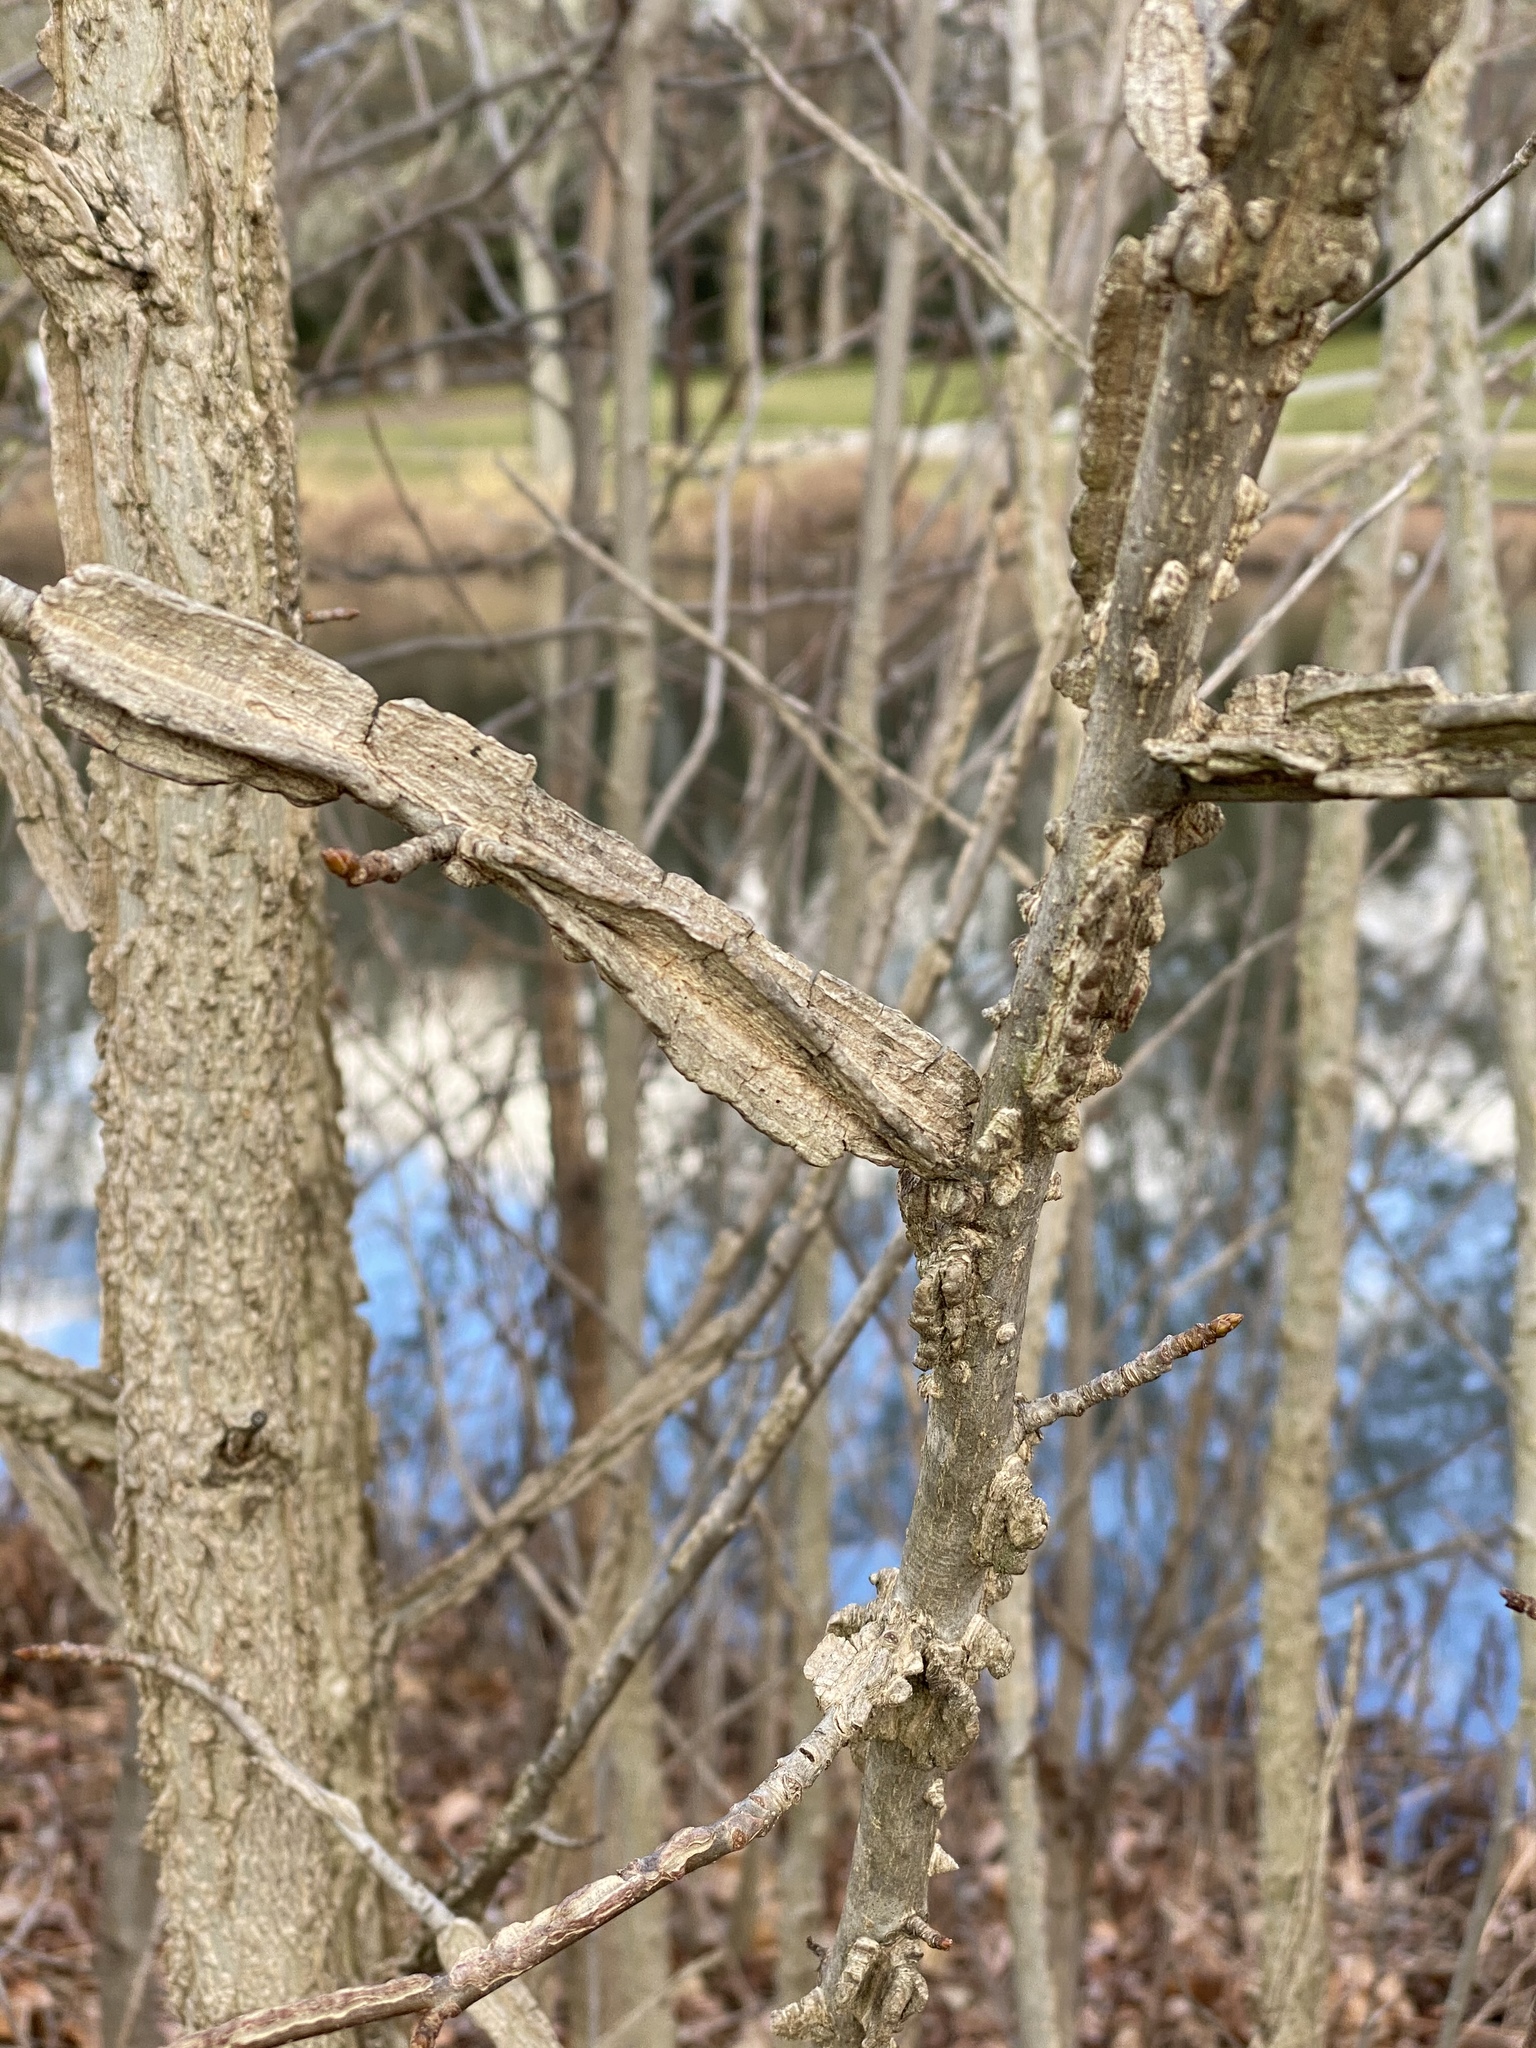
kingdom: Plantae
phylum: Tracheophyta
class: Magnoliopsida
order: Saxifragales
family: Altingiaceae
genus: Liquidambar
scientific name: Liquidambar styraciflua
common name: Sweet gum
